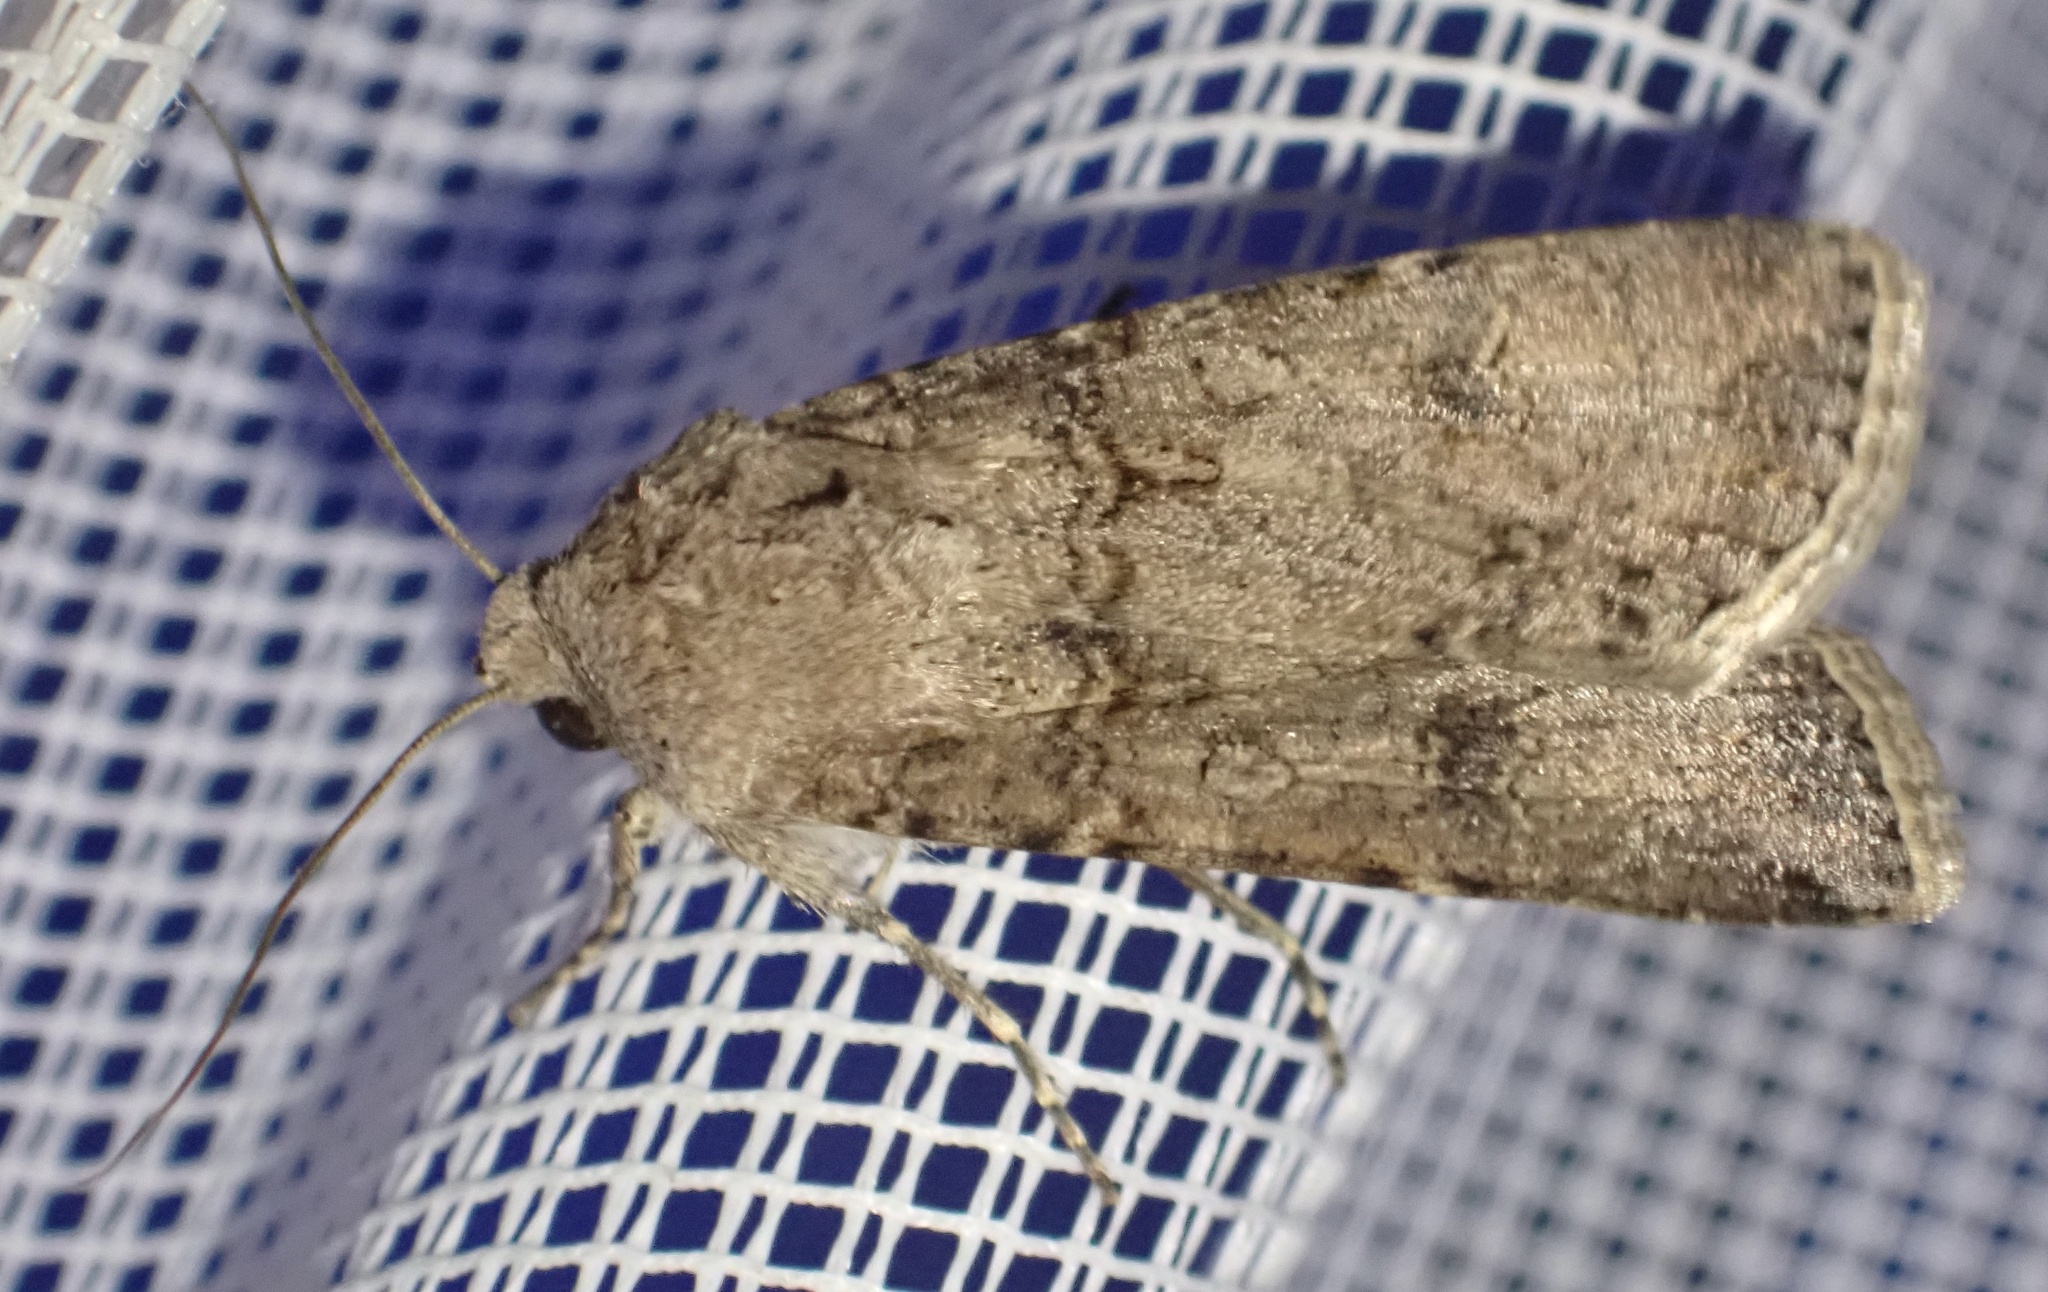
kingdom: Animalia
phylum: Arthropoda
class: Insecta
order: Lepidoptera
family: Noctuidae
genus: Agrotis
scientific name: Agrotis segetum
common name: Turnip moth
